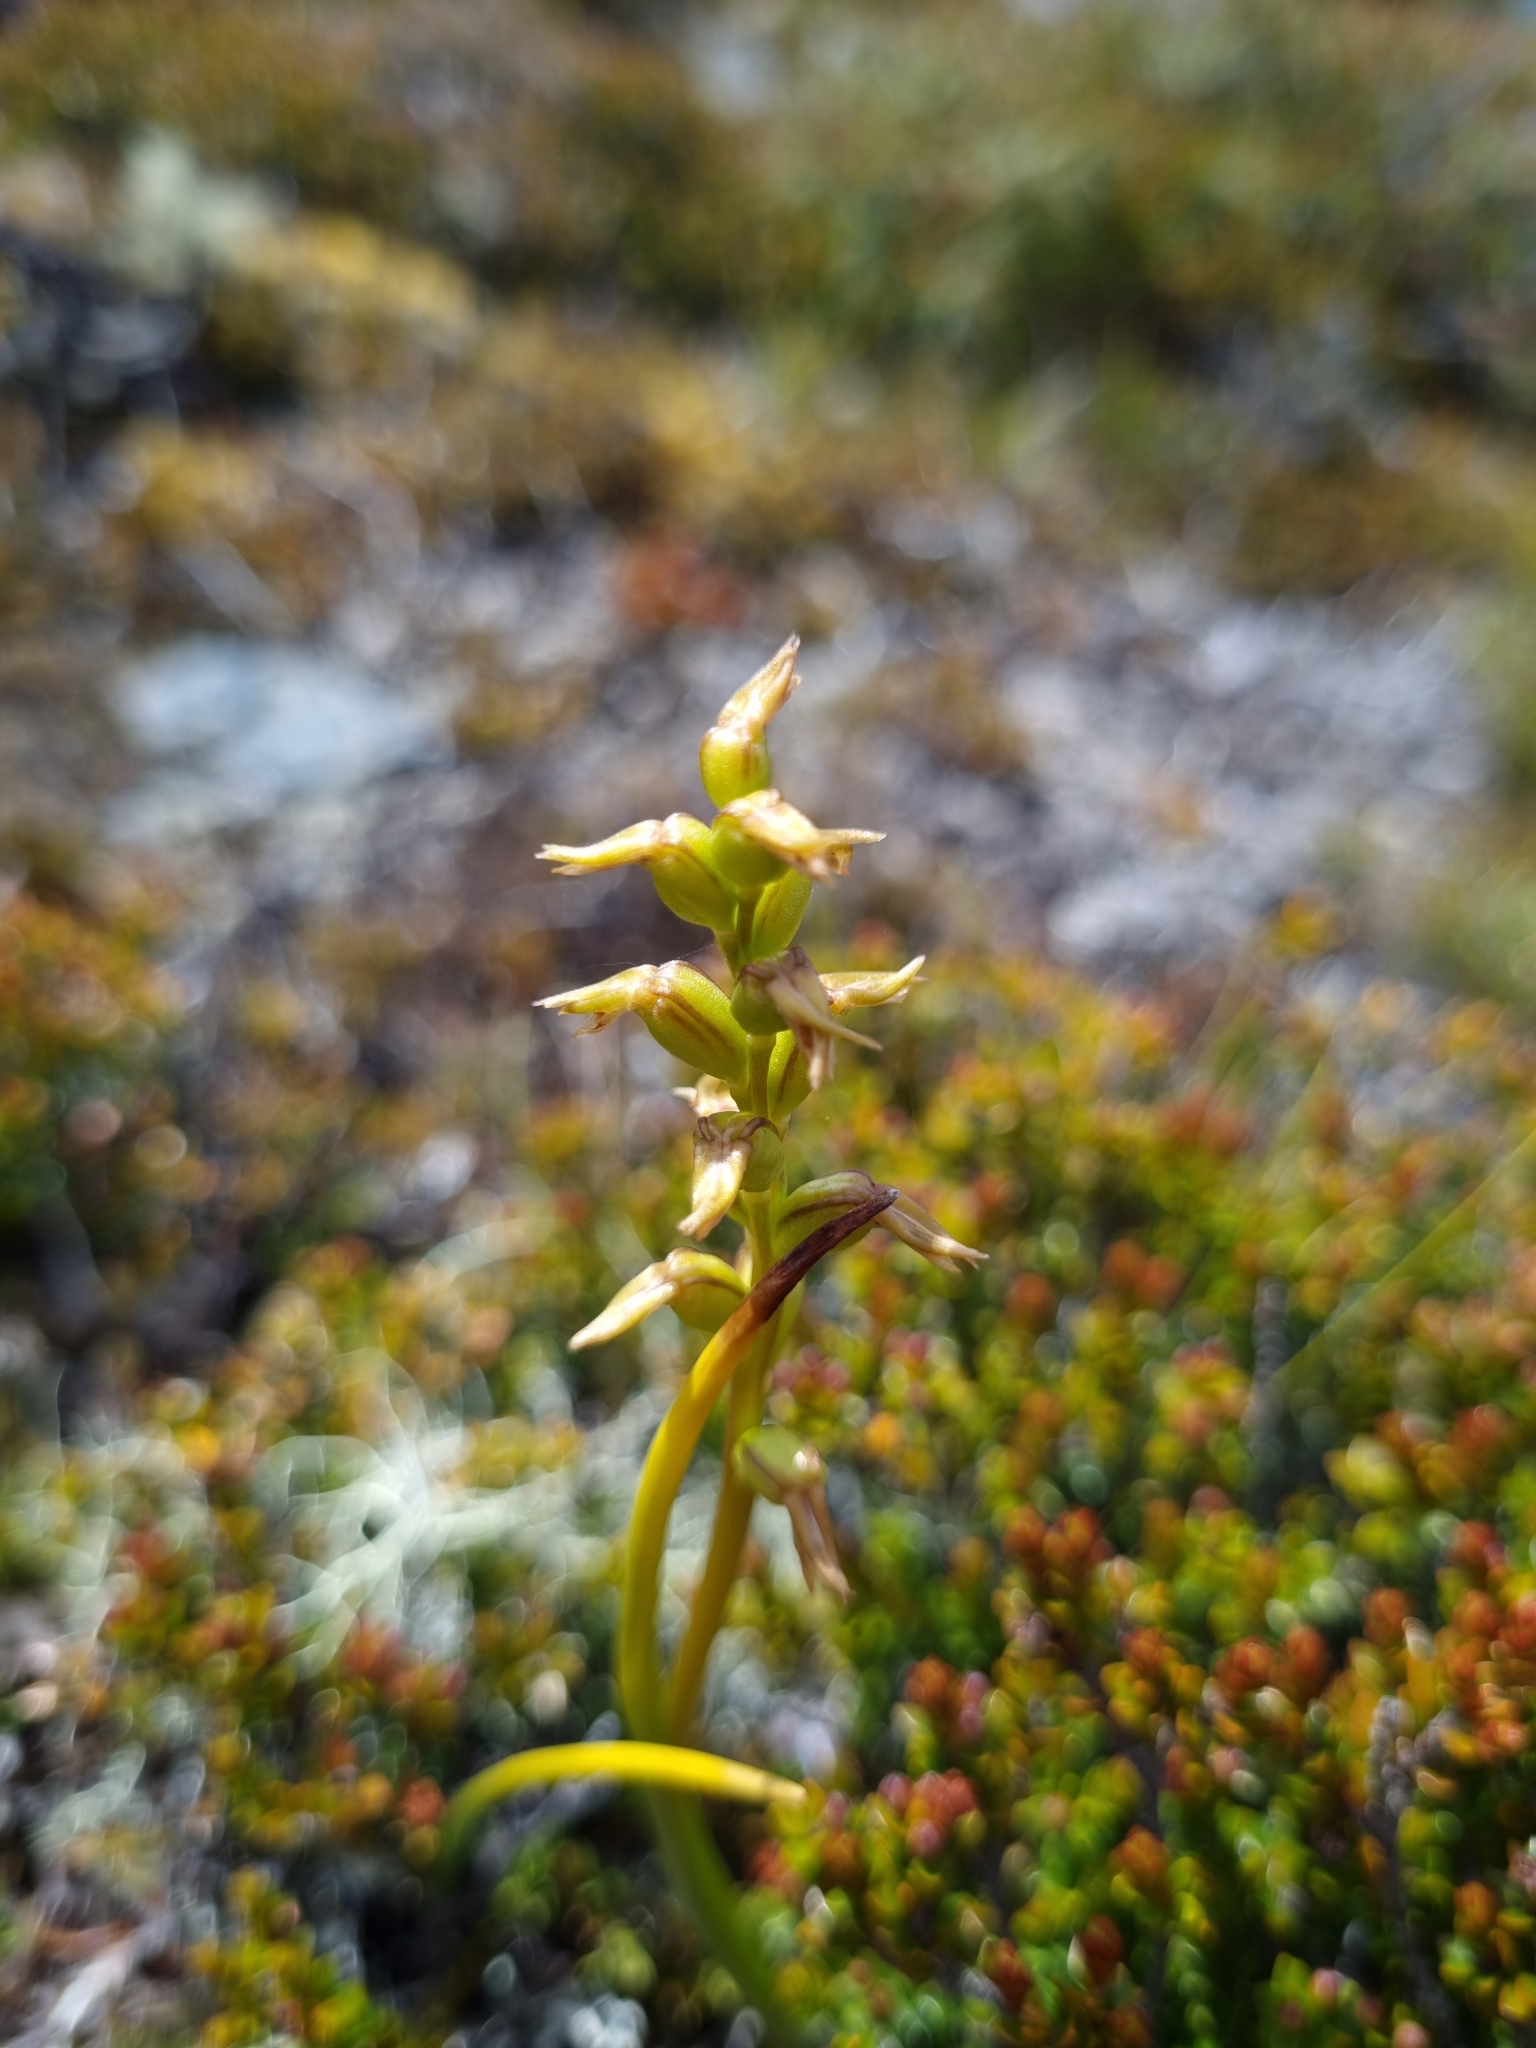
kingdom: Plantae
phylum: Tracheophyta
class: Liliopsida
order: Asparagales
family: Orchidaceae
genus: Prasophyllum
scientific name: Prasophyllum colensoi
